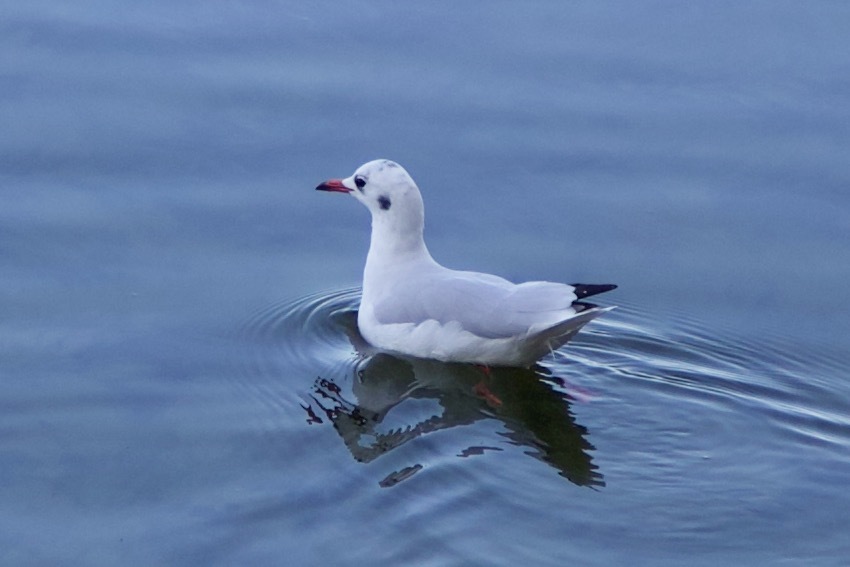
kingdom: Animalia
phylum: Chordata
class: Aves
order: Charadriiformes
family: Laridae
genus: Chroicocephalus
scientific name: Chroicocephalus ridibundus
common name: Black-headed gull
